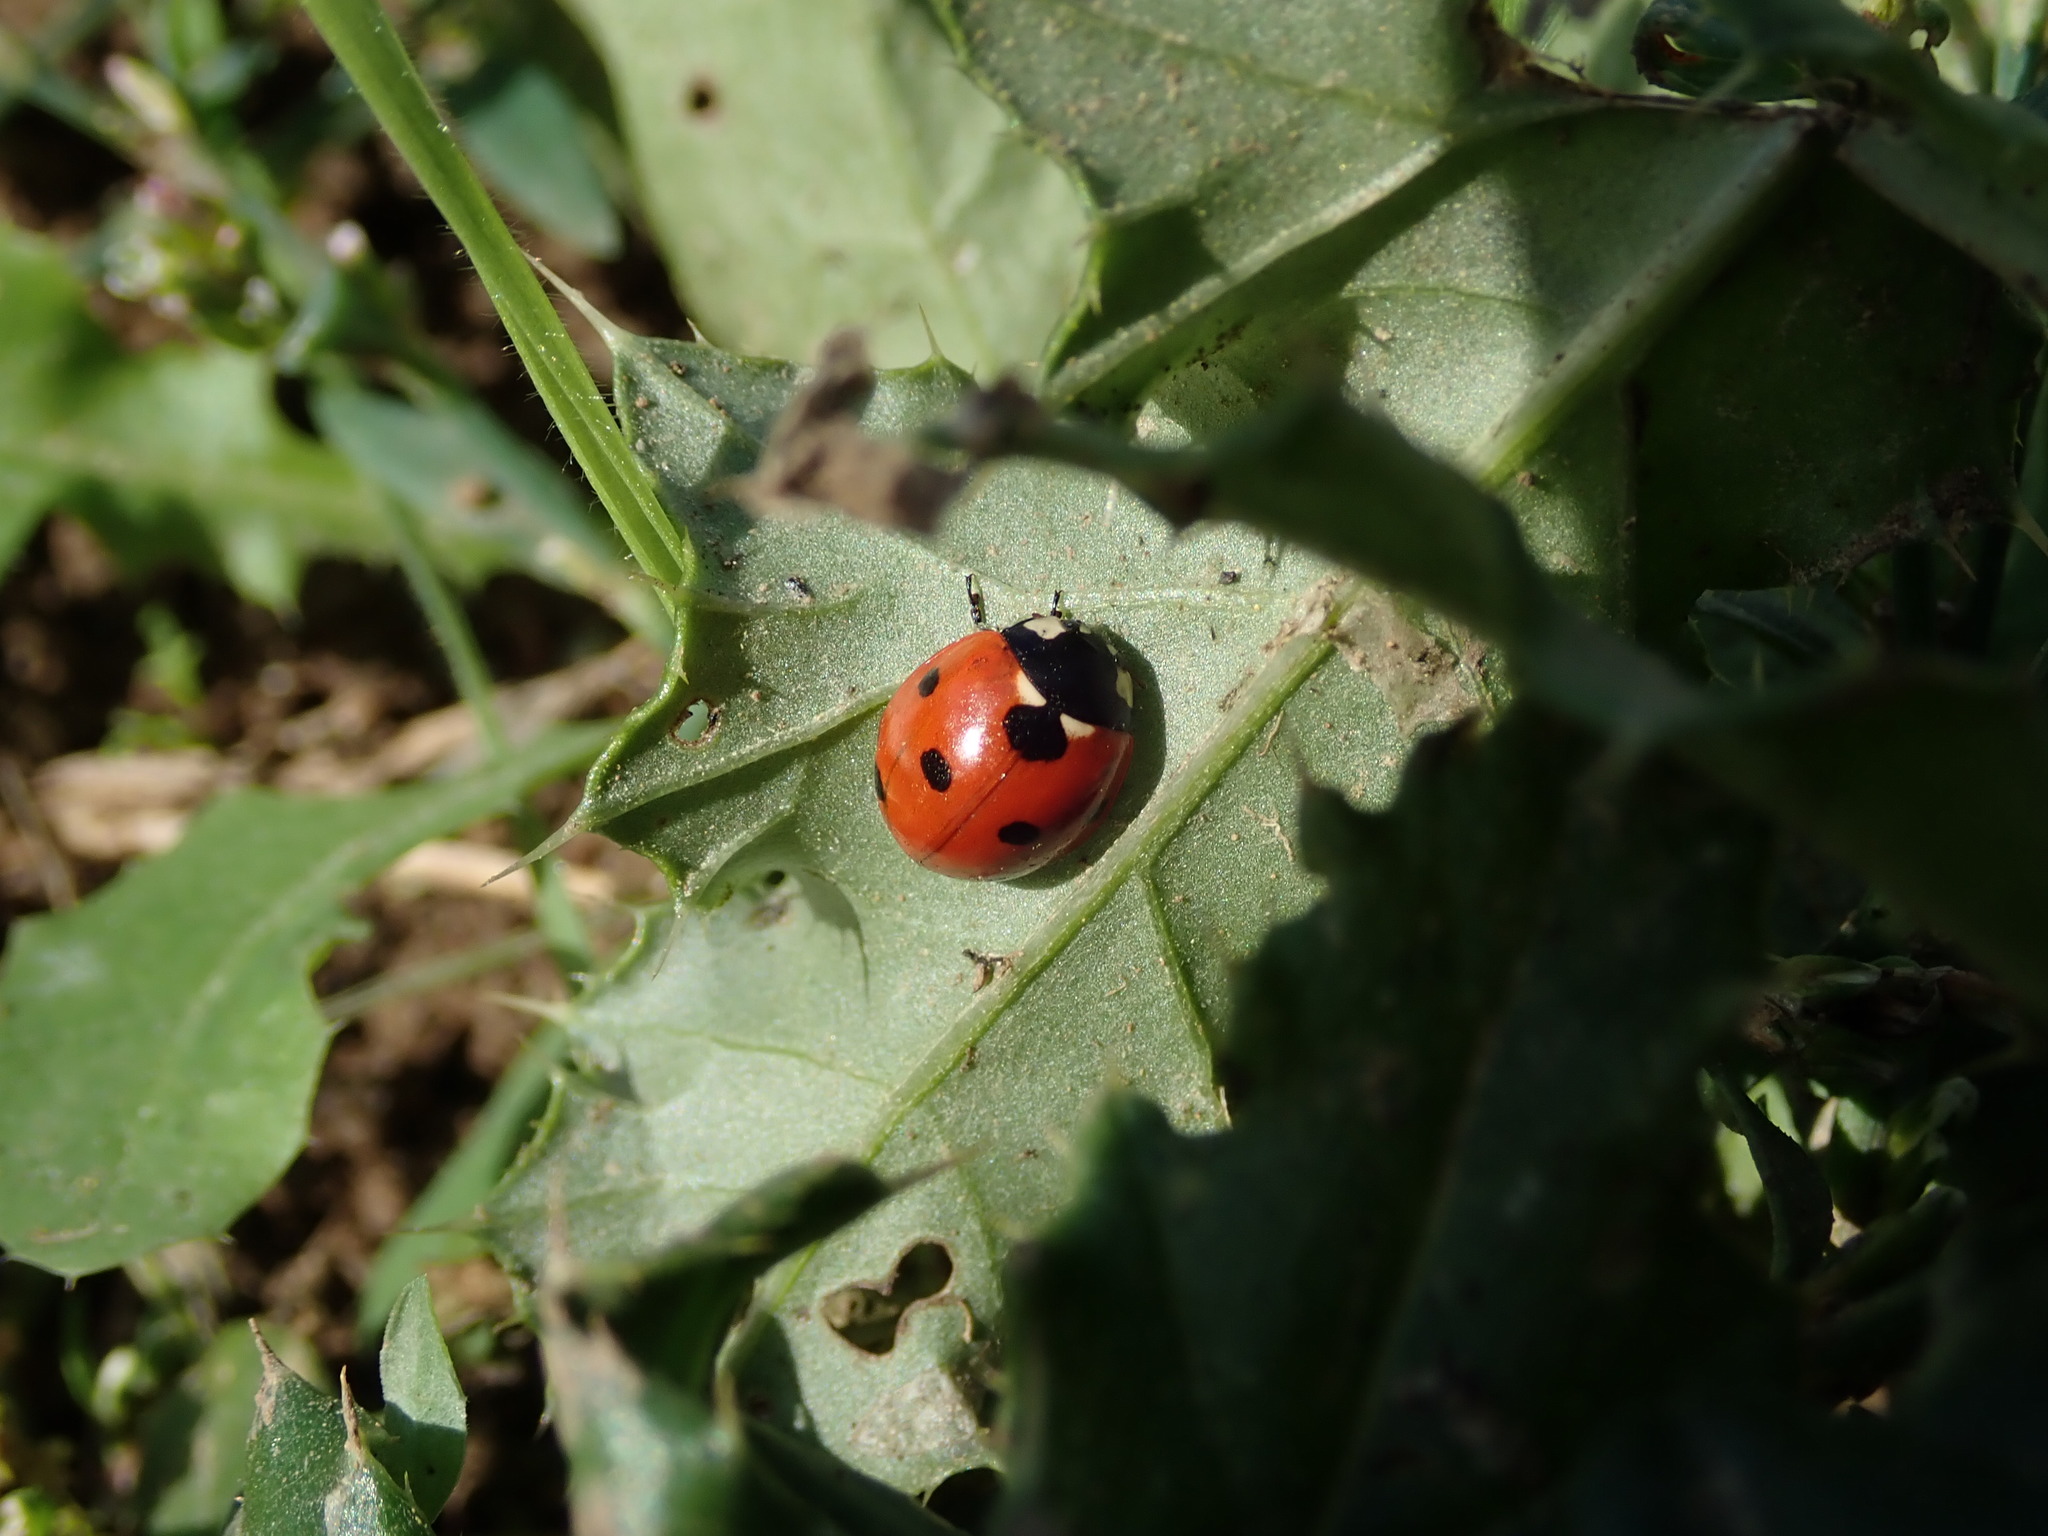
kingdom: Animalia
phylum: Arthropoda
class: Insecta
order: Coleoptera
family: Coccinellidae
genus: Coccinella
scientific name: Coccinella septempunctata
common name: Sevenspotted lady beetle
